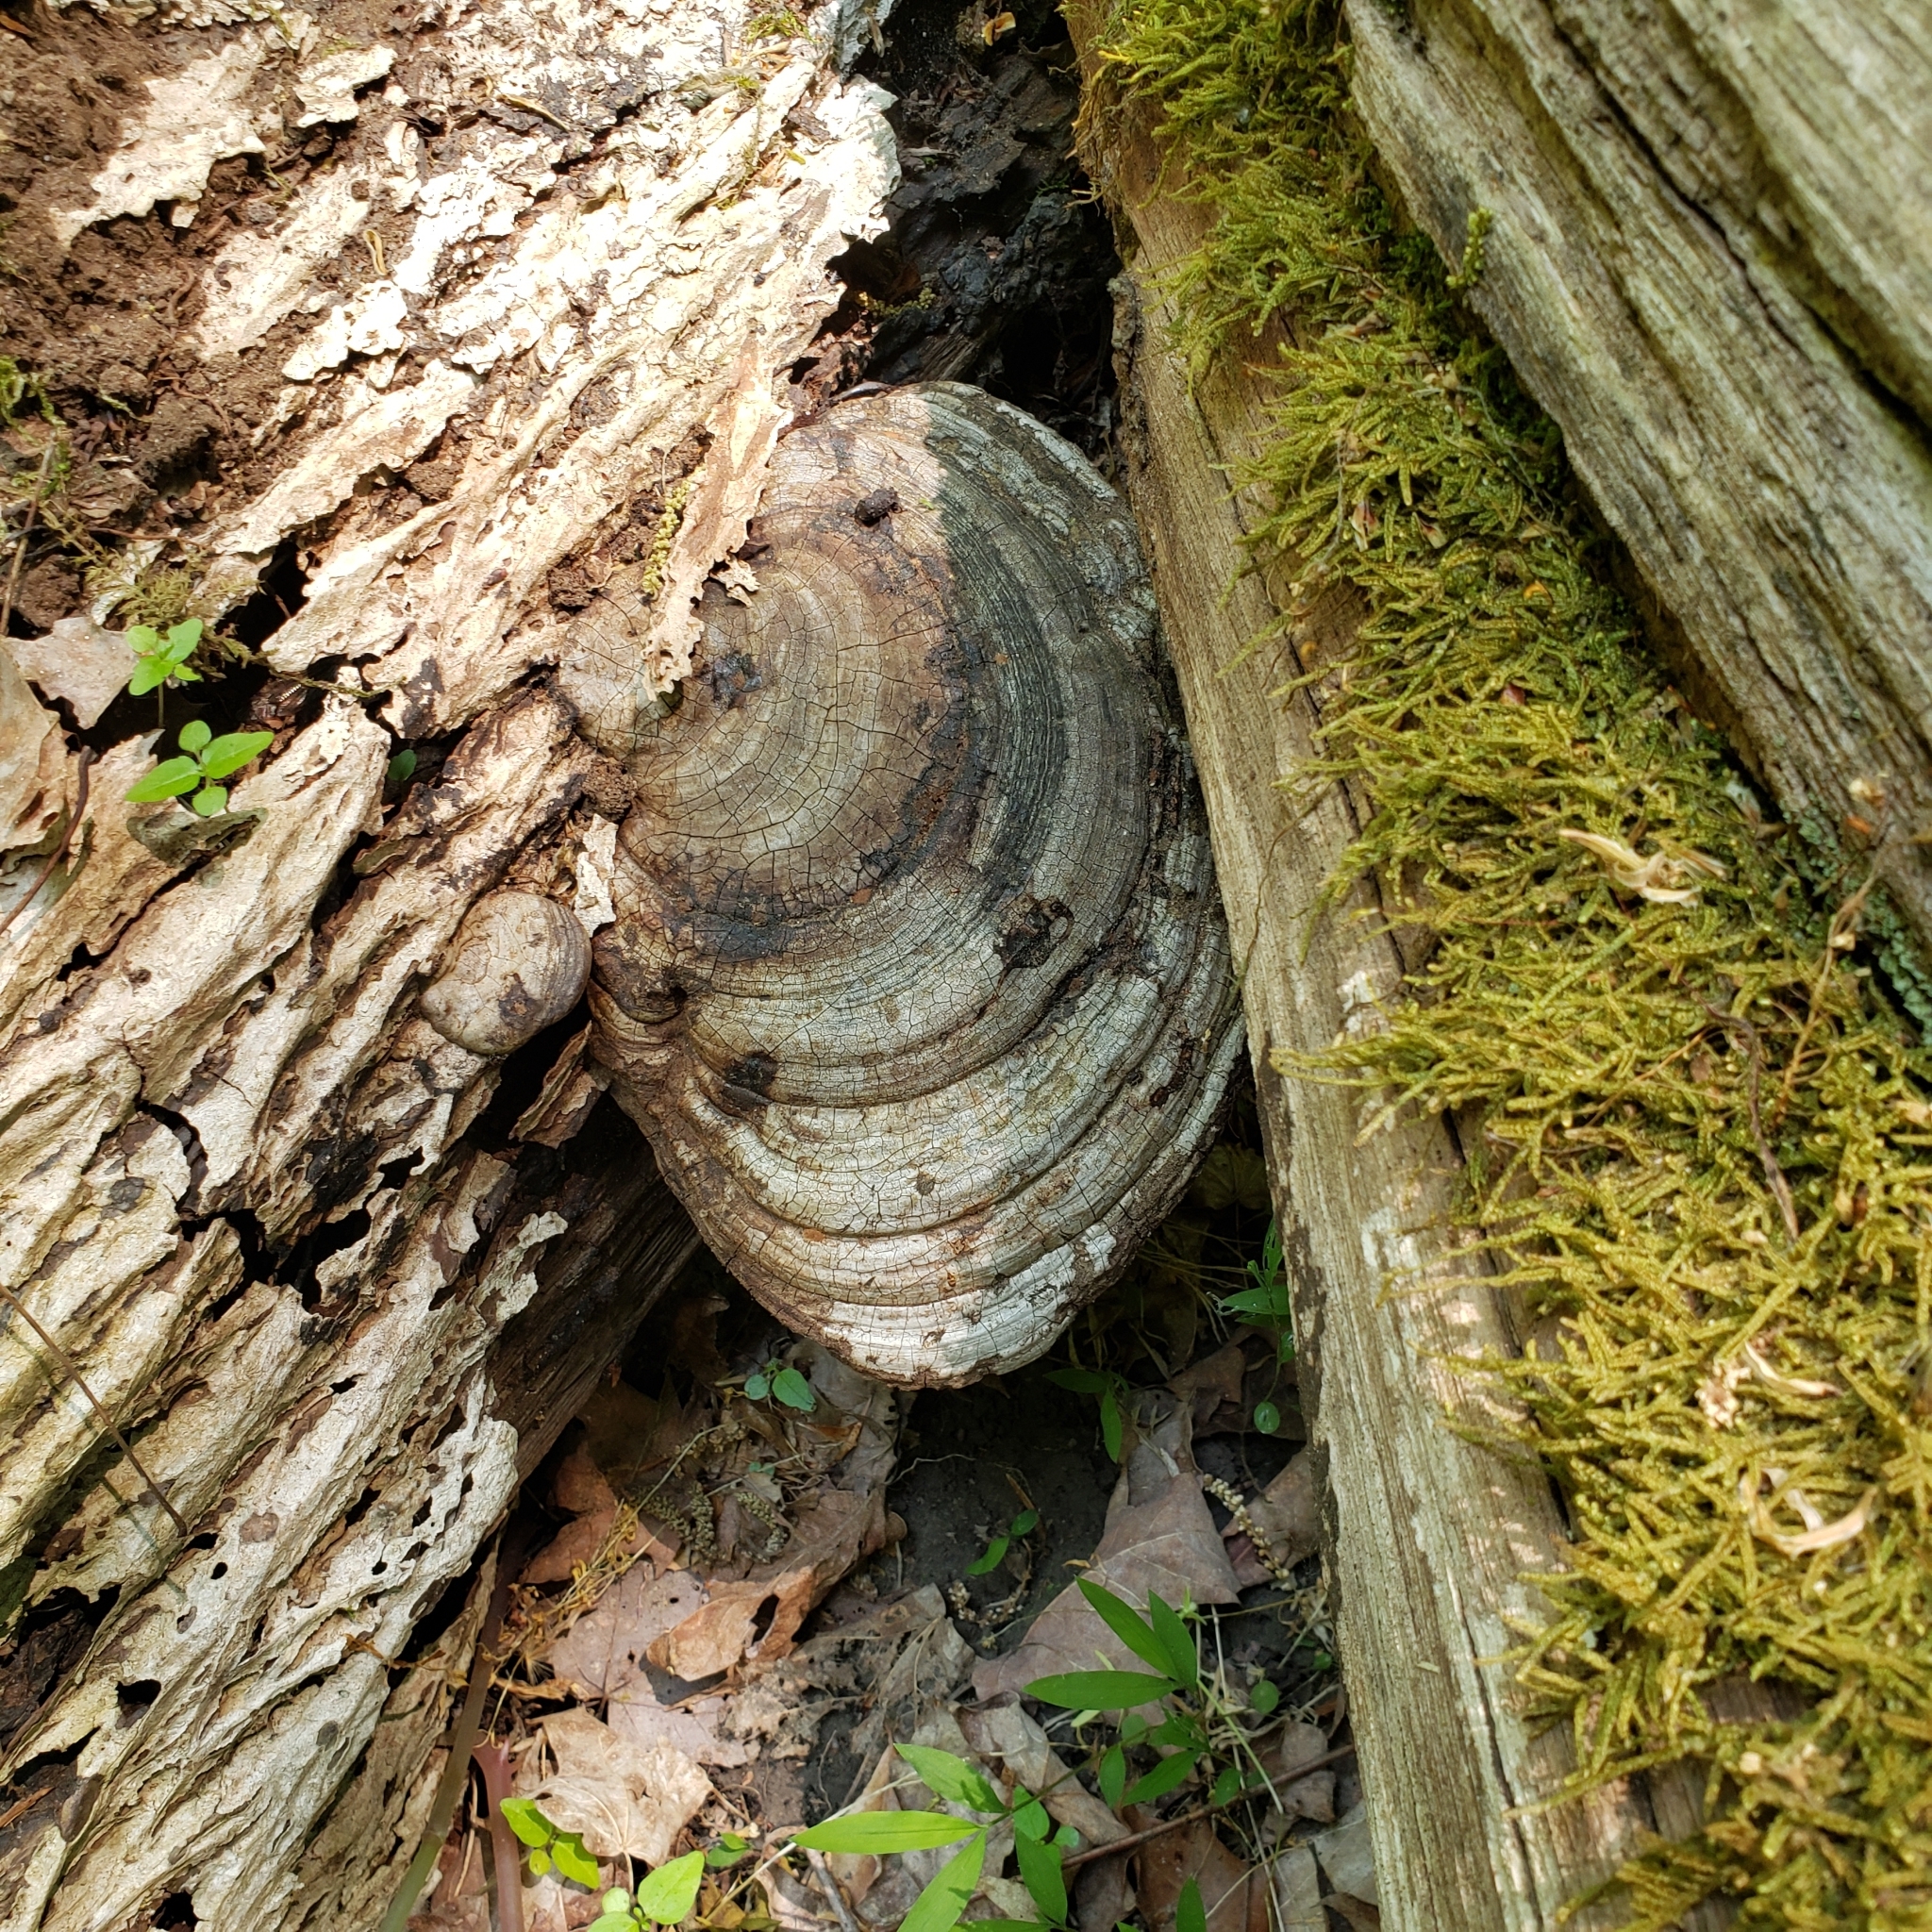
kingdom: Fungi
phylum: Basidiomycota
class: Agaricomycetes
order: Polyporales
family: Polyporaceae
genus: Ganoderma
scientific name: Ganoderma applanatum
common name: Artist's bracket
